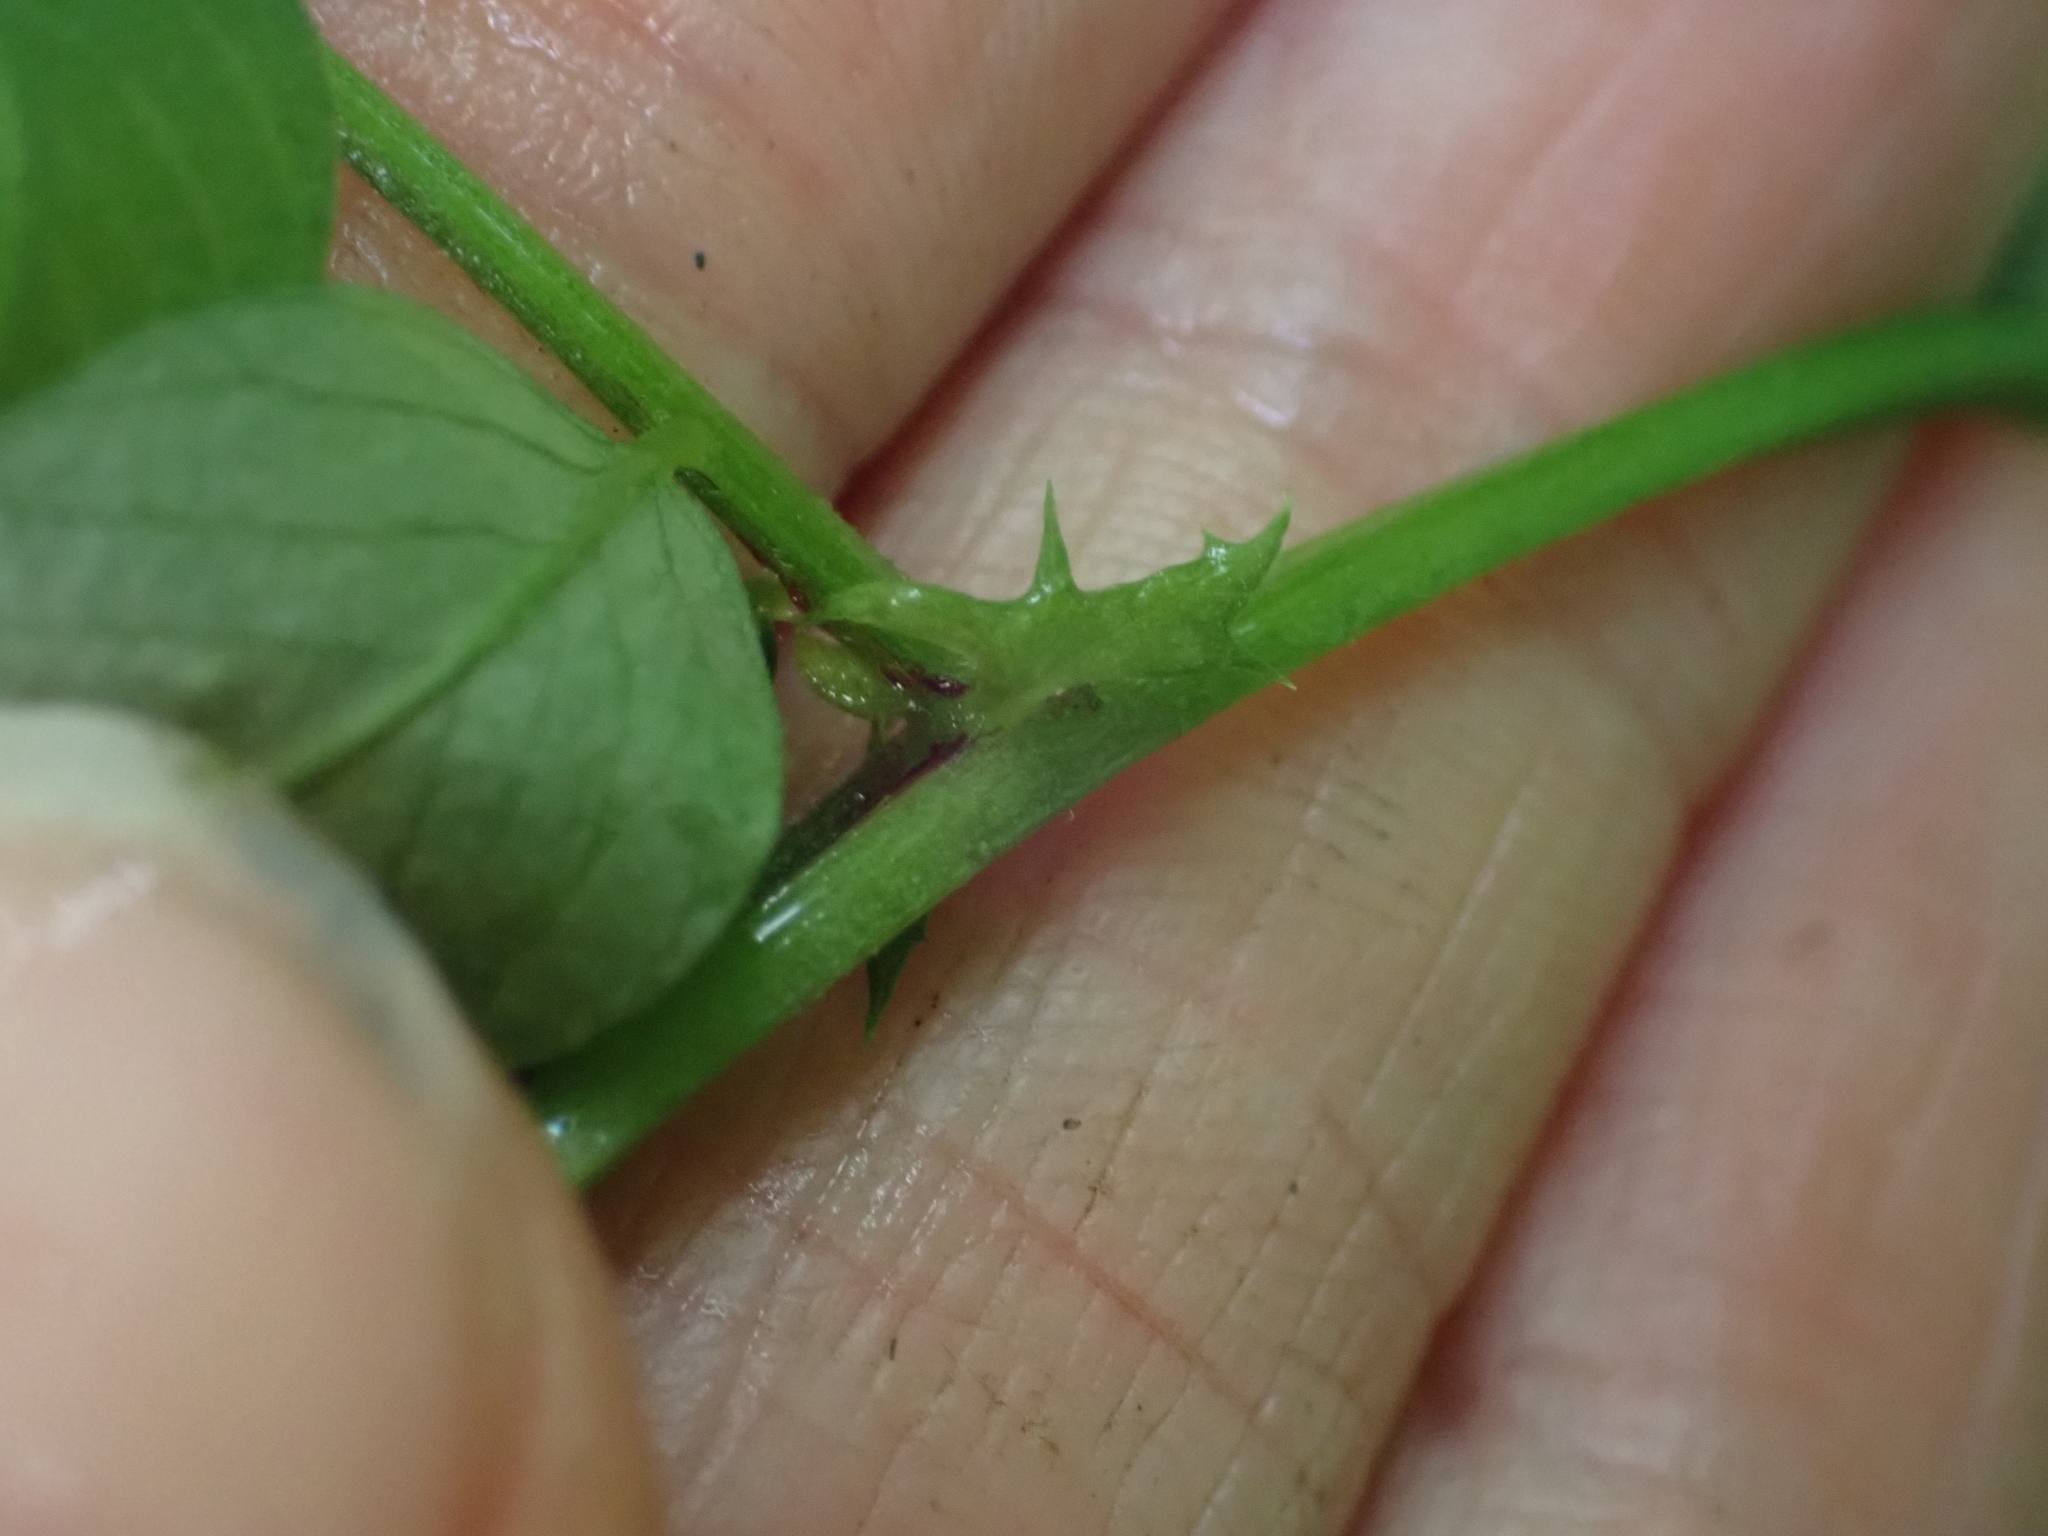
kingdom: Plantae
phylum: Tracheophyta
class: Magnoliopsida
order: Fabales
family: Fabaceae
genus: Vicia
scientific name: Vicia americana
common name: American vetch
